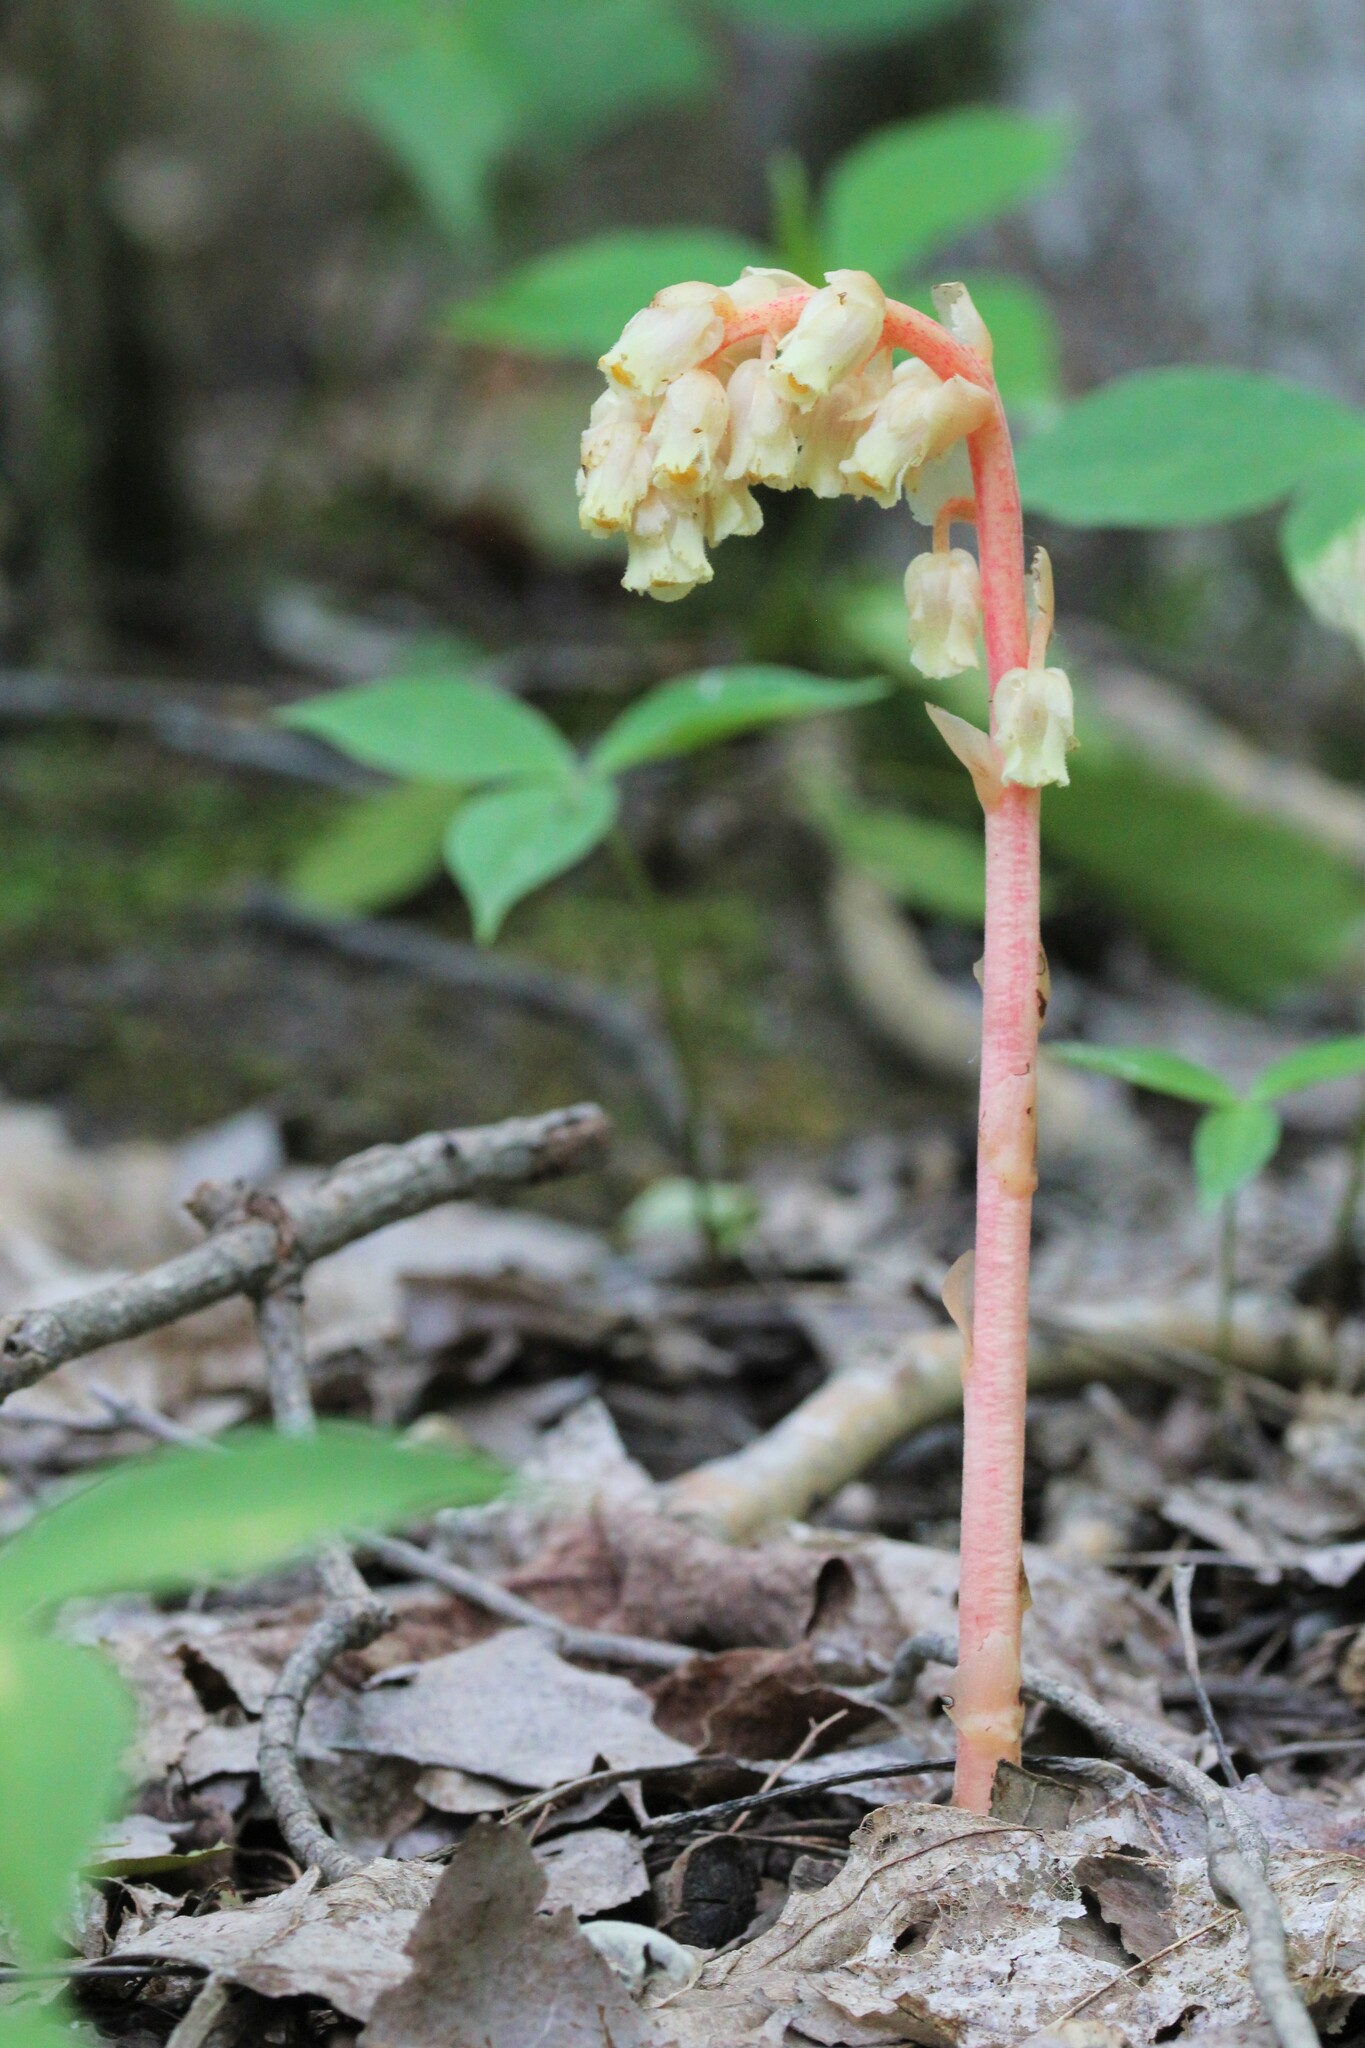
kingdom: Plantae
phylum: Tracheophyta
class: Magnoliopsida
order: Ericales
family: Ericaceae
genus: Hypopitys
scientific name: Hypopitys monotropa
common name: Yellow bird's-nest
